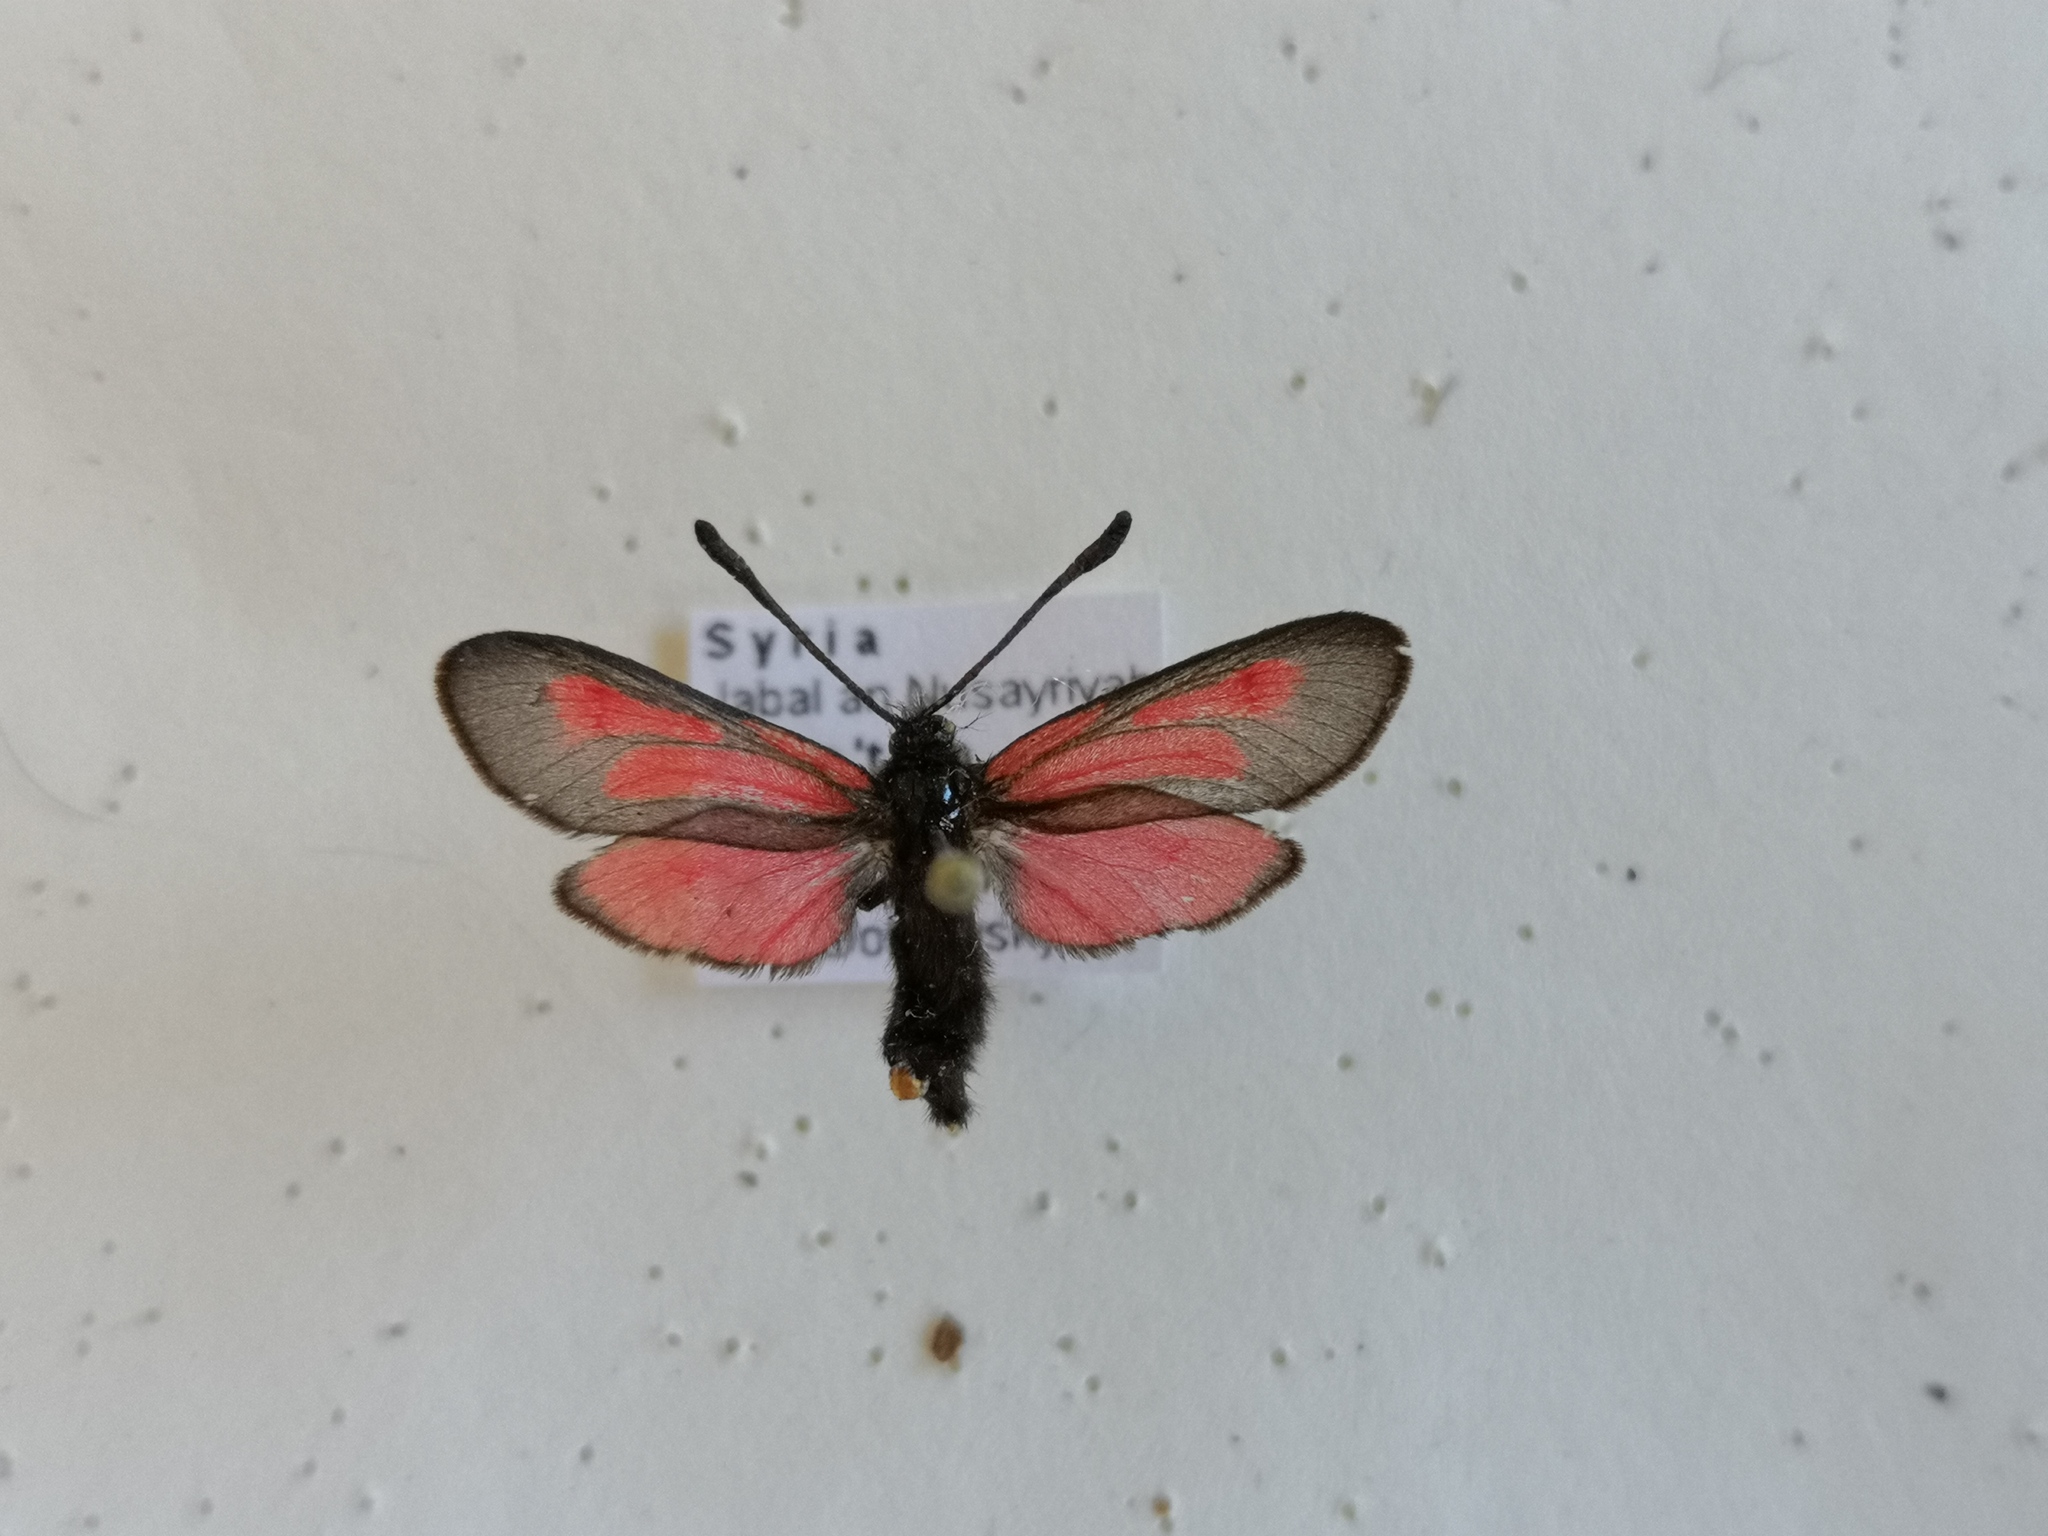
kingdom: Animalia
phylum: Arthropoda
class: Insecta
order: Lepidoptera
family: Zygaenidae
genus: Zygaena
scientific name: Zygaena brizae
